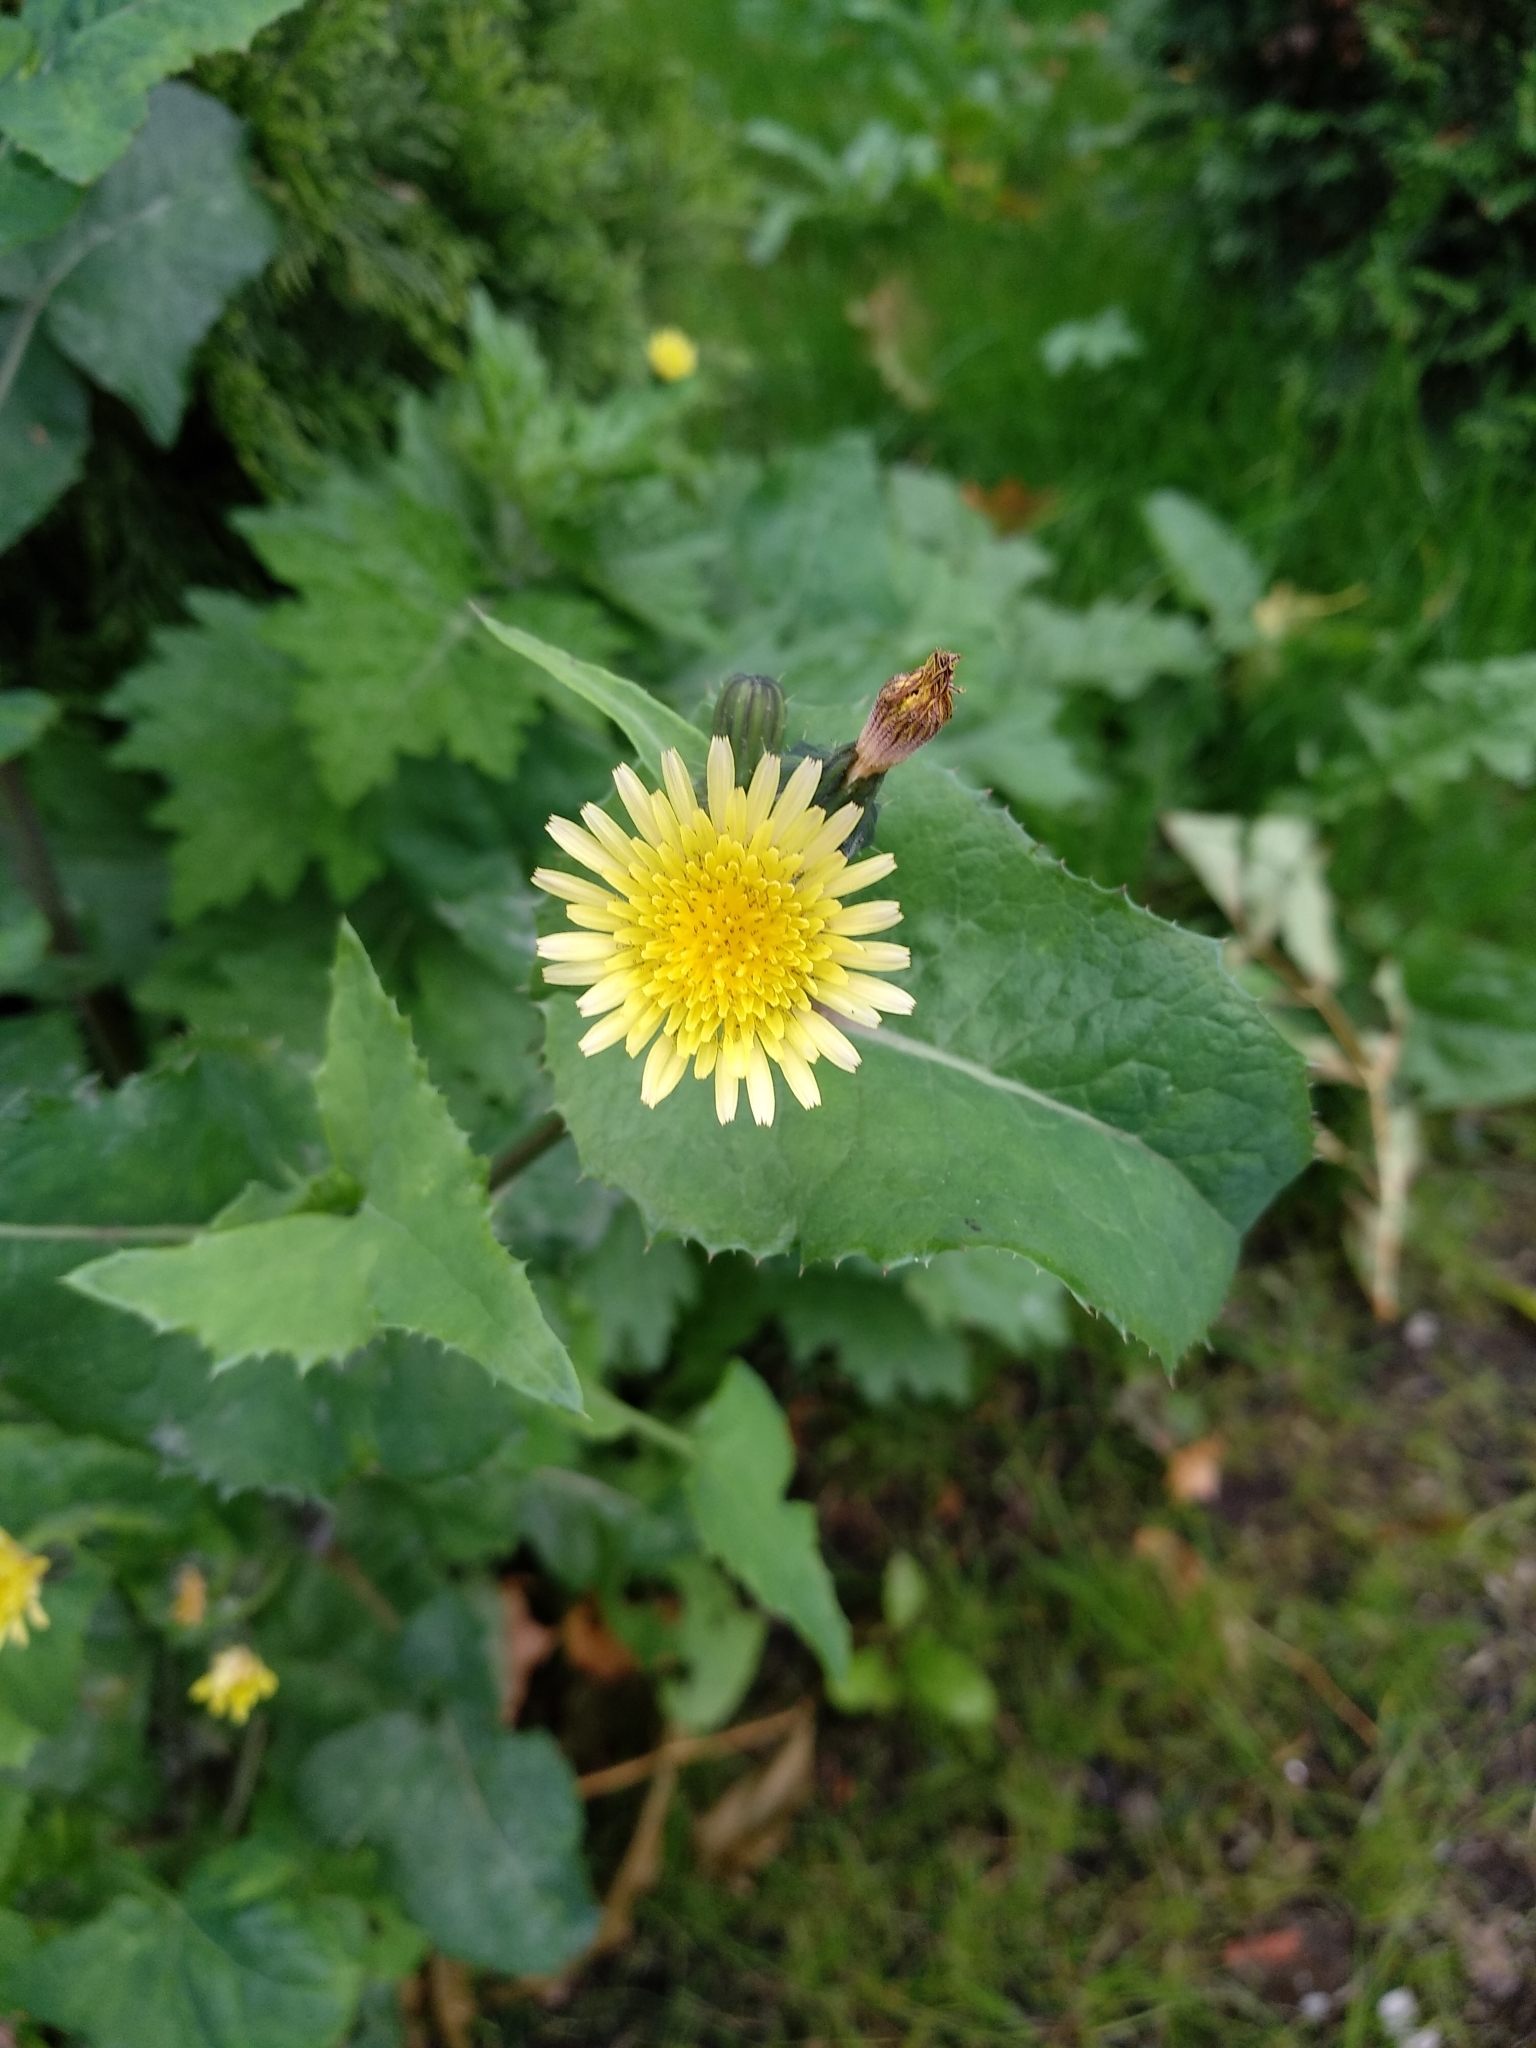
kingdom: Plantae
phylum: Tracheophyta
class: Magnoliopsida
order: Asterales
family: Asteraceae
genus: Sonchus
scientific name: Sonchus oleraceus
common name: Common sowthistle
